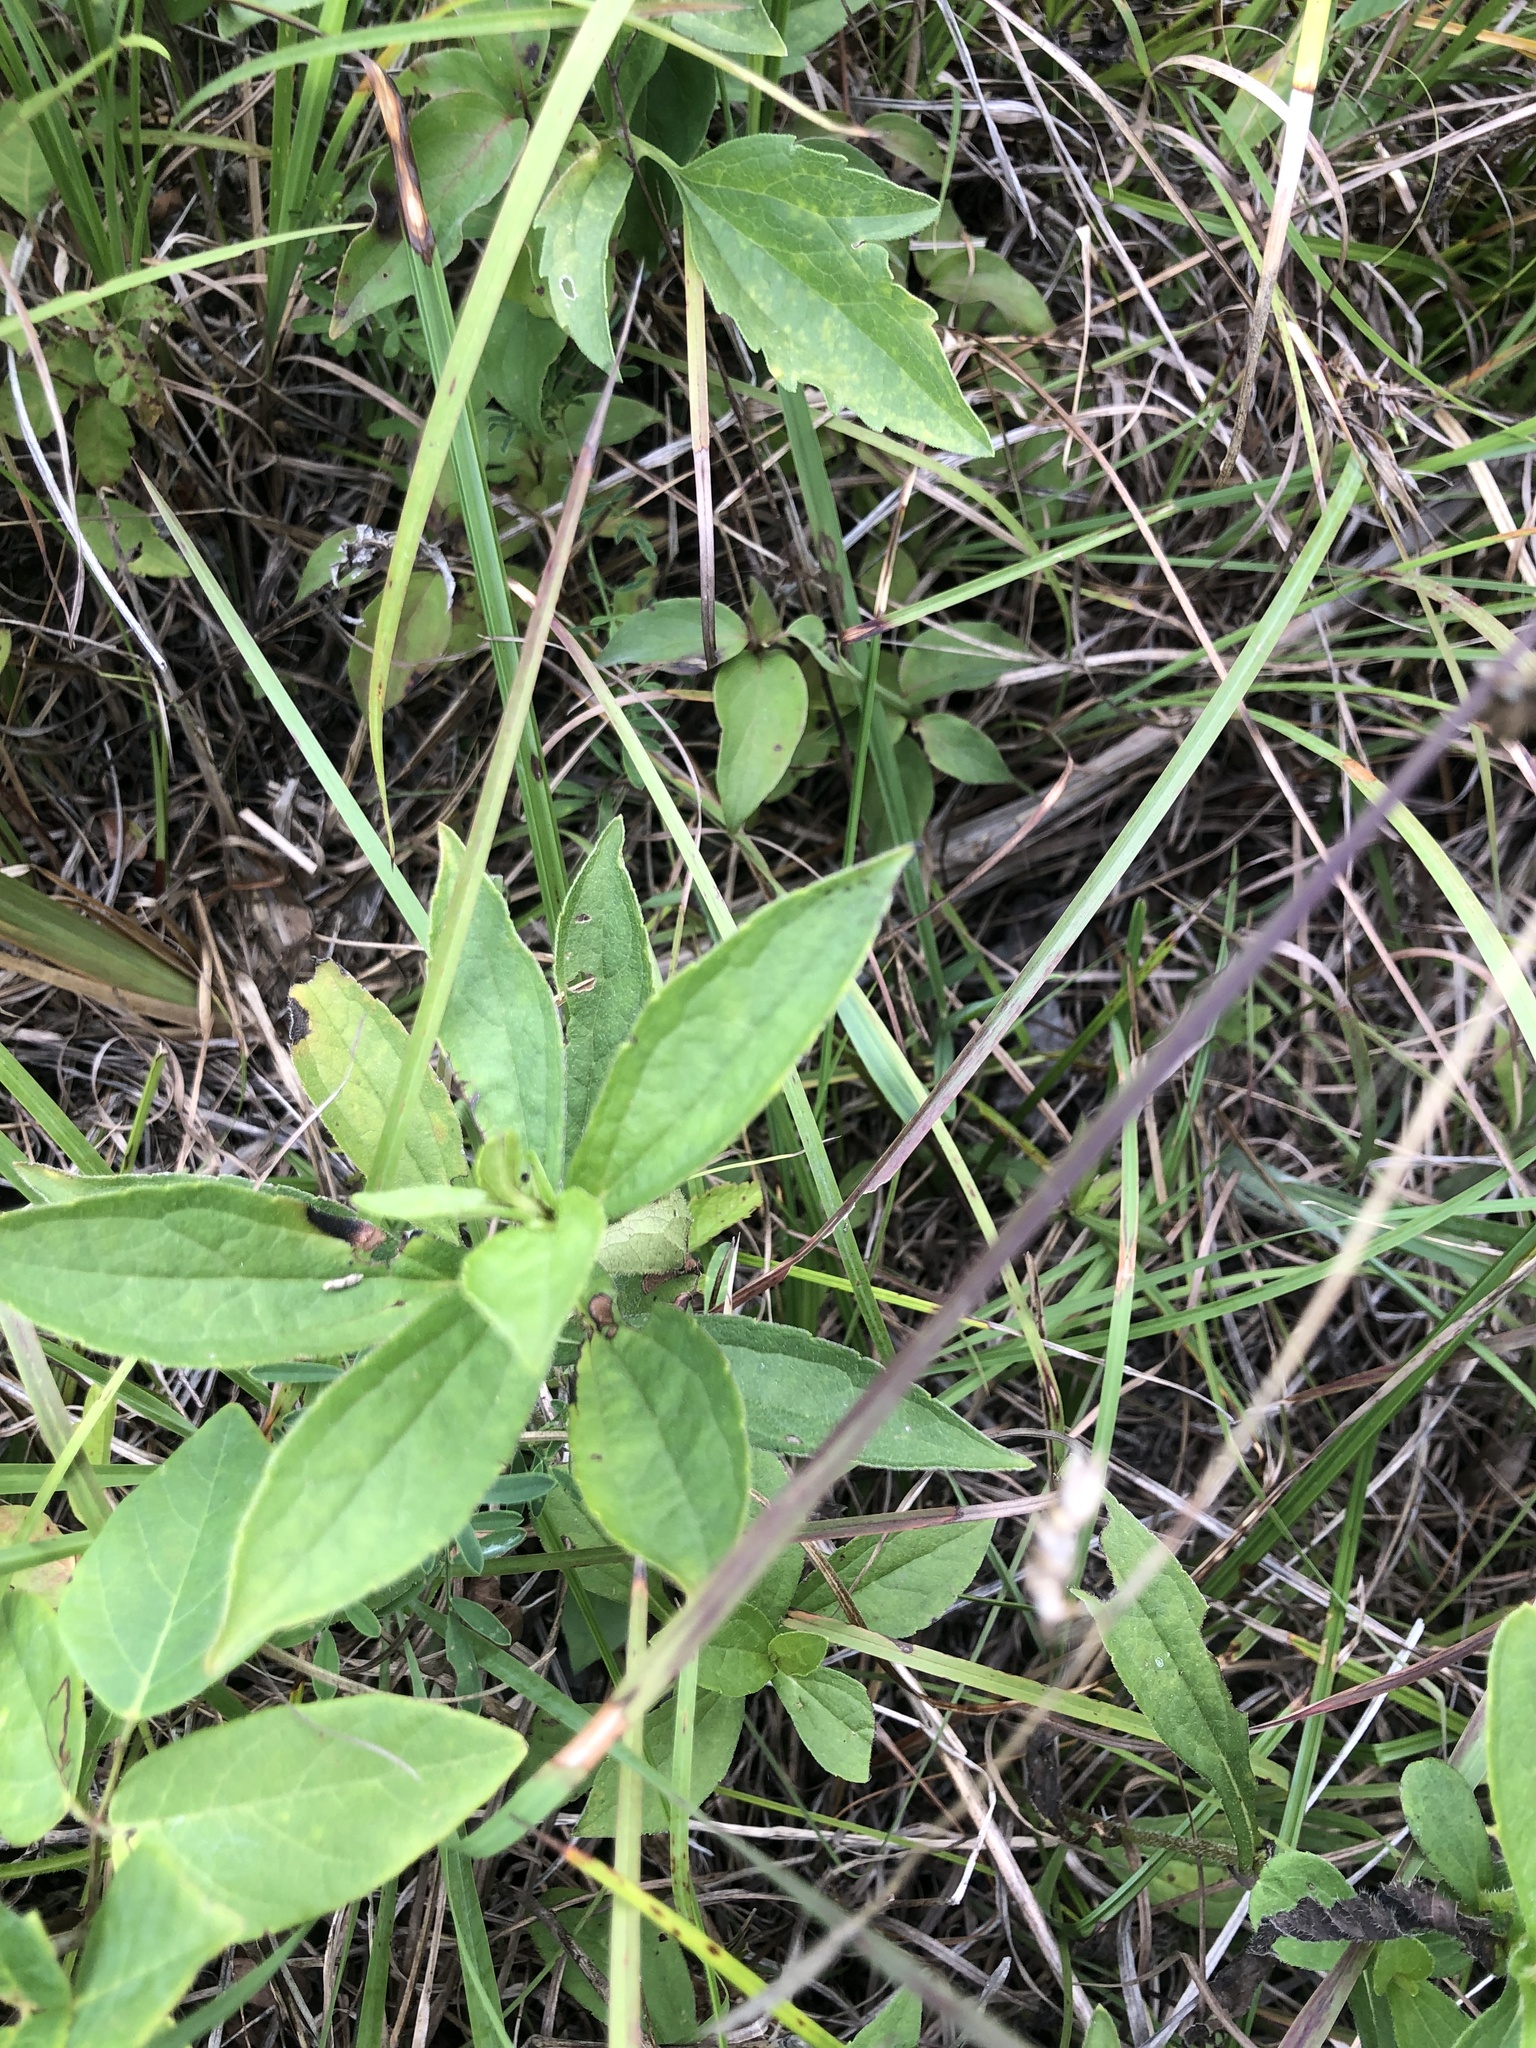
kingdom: Plantae
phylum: Tracheophyta
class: Magnoliopsida
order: Asterales
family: Asteraceae
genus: Rudbeckia
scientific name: Rudbeckia terranigrae
